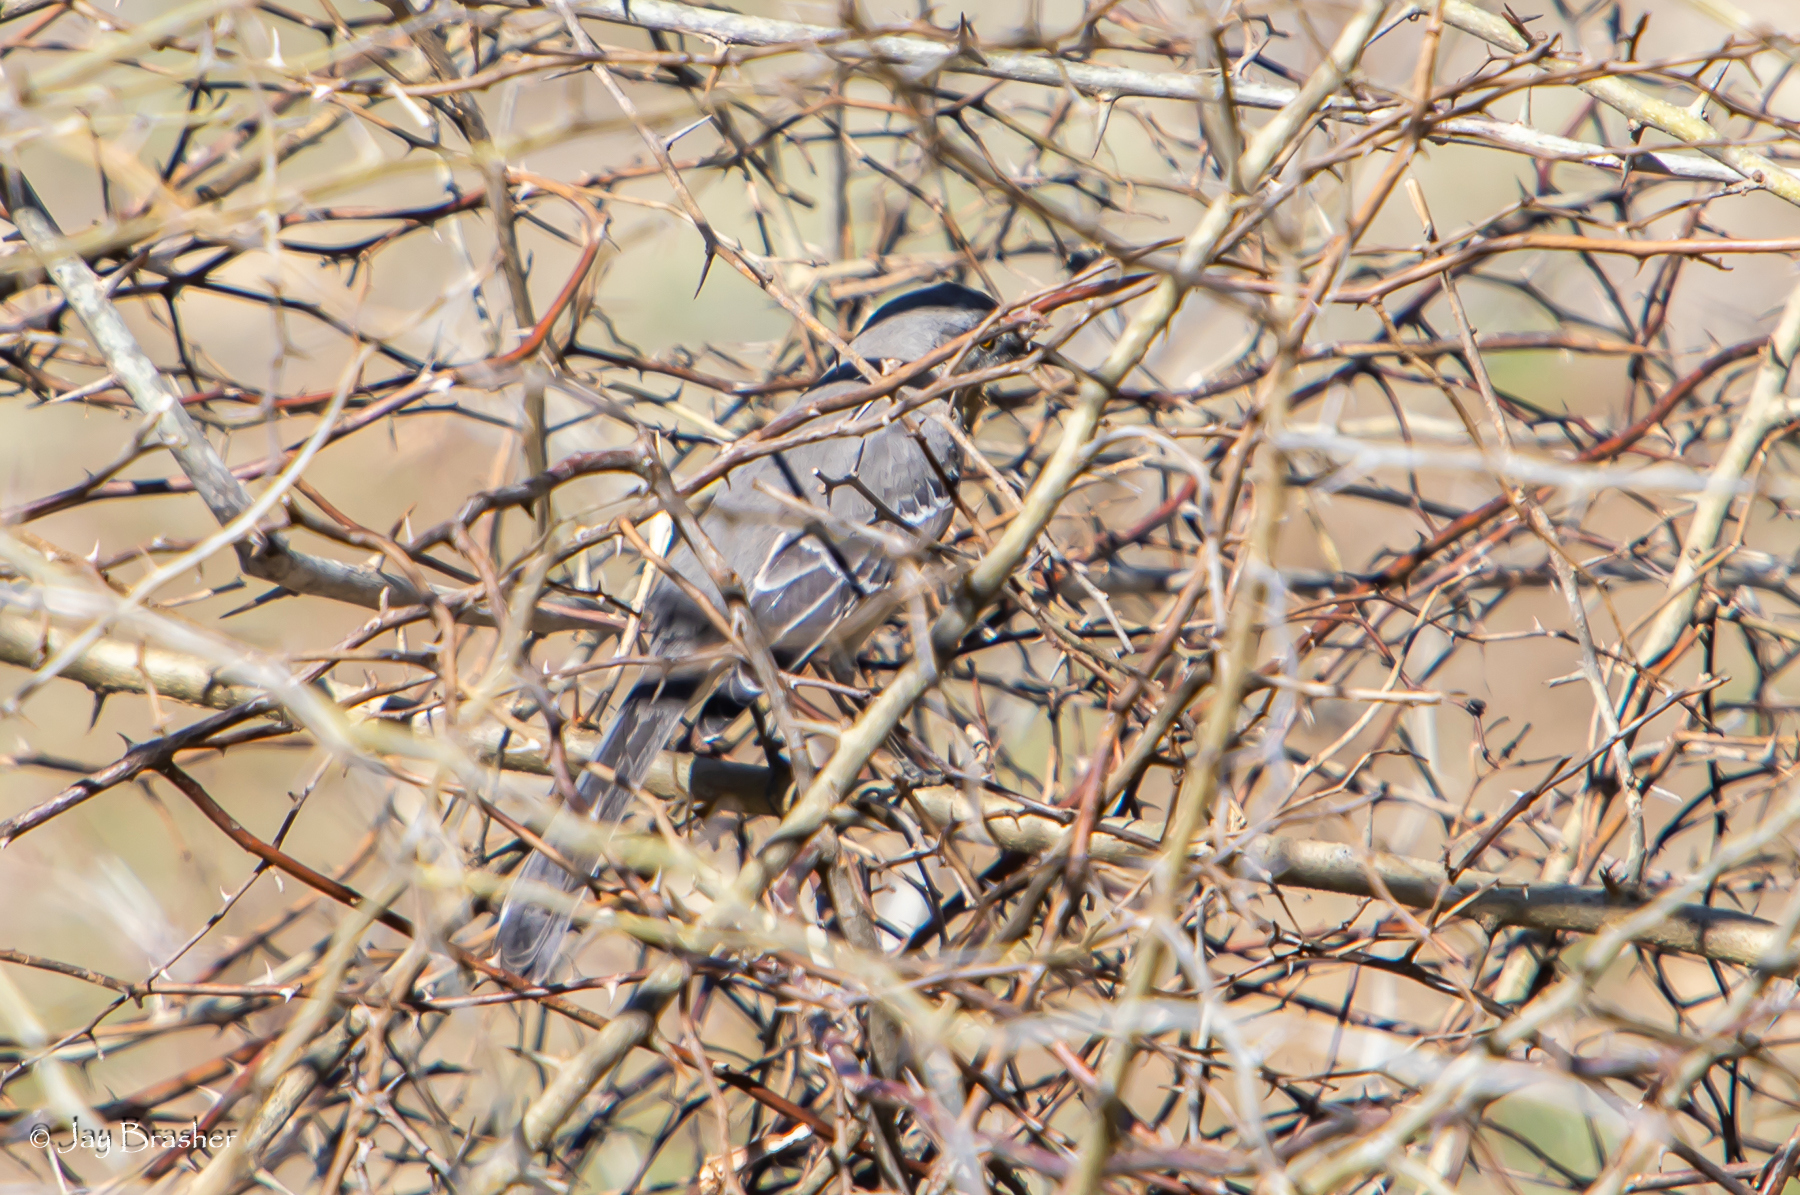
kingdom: Animalia
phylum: Chordata
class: Aves
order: Passeriformes
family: Mimidae
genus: Mimus
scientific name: Mimus polyglottos
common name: Northern mockingbird
